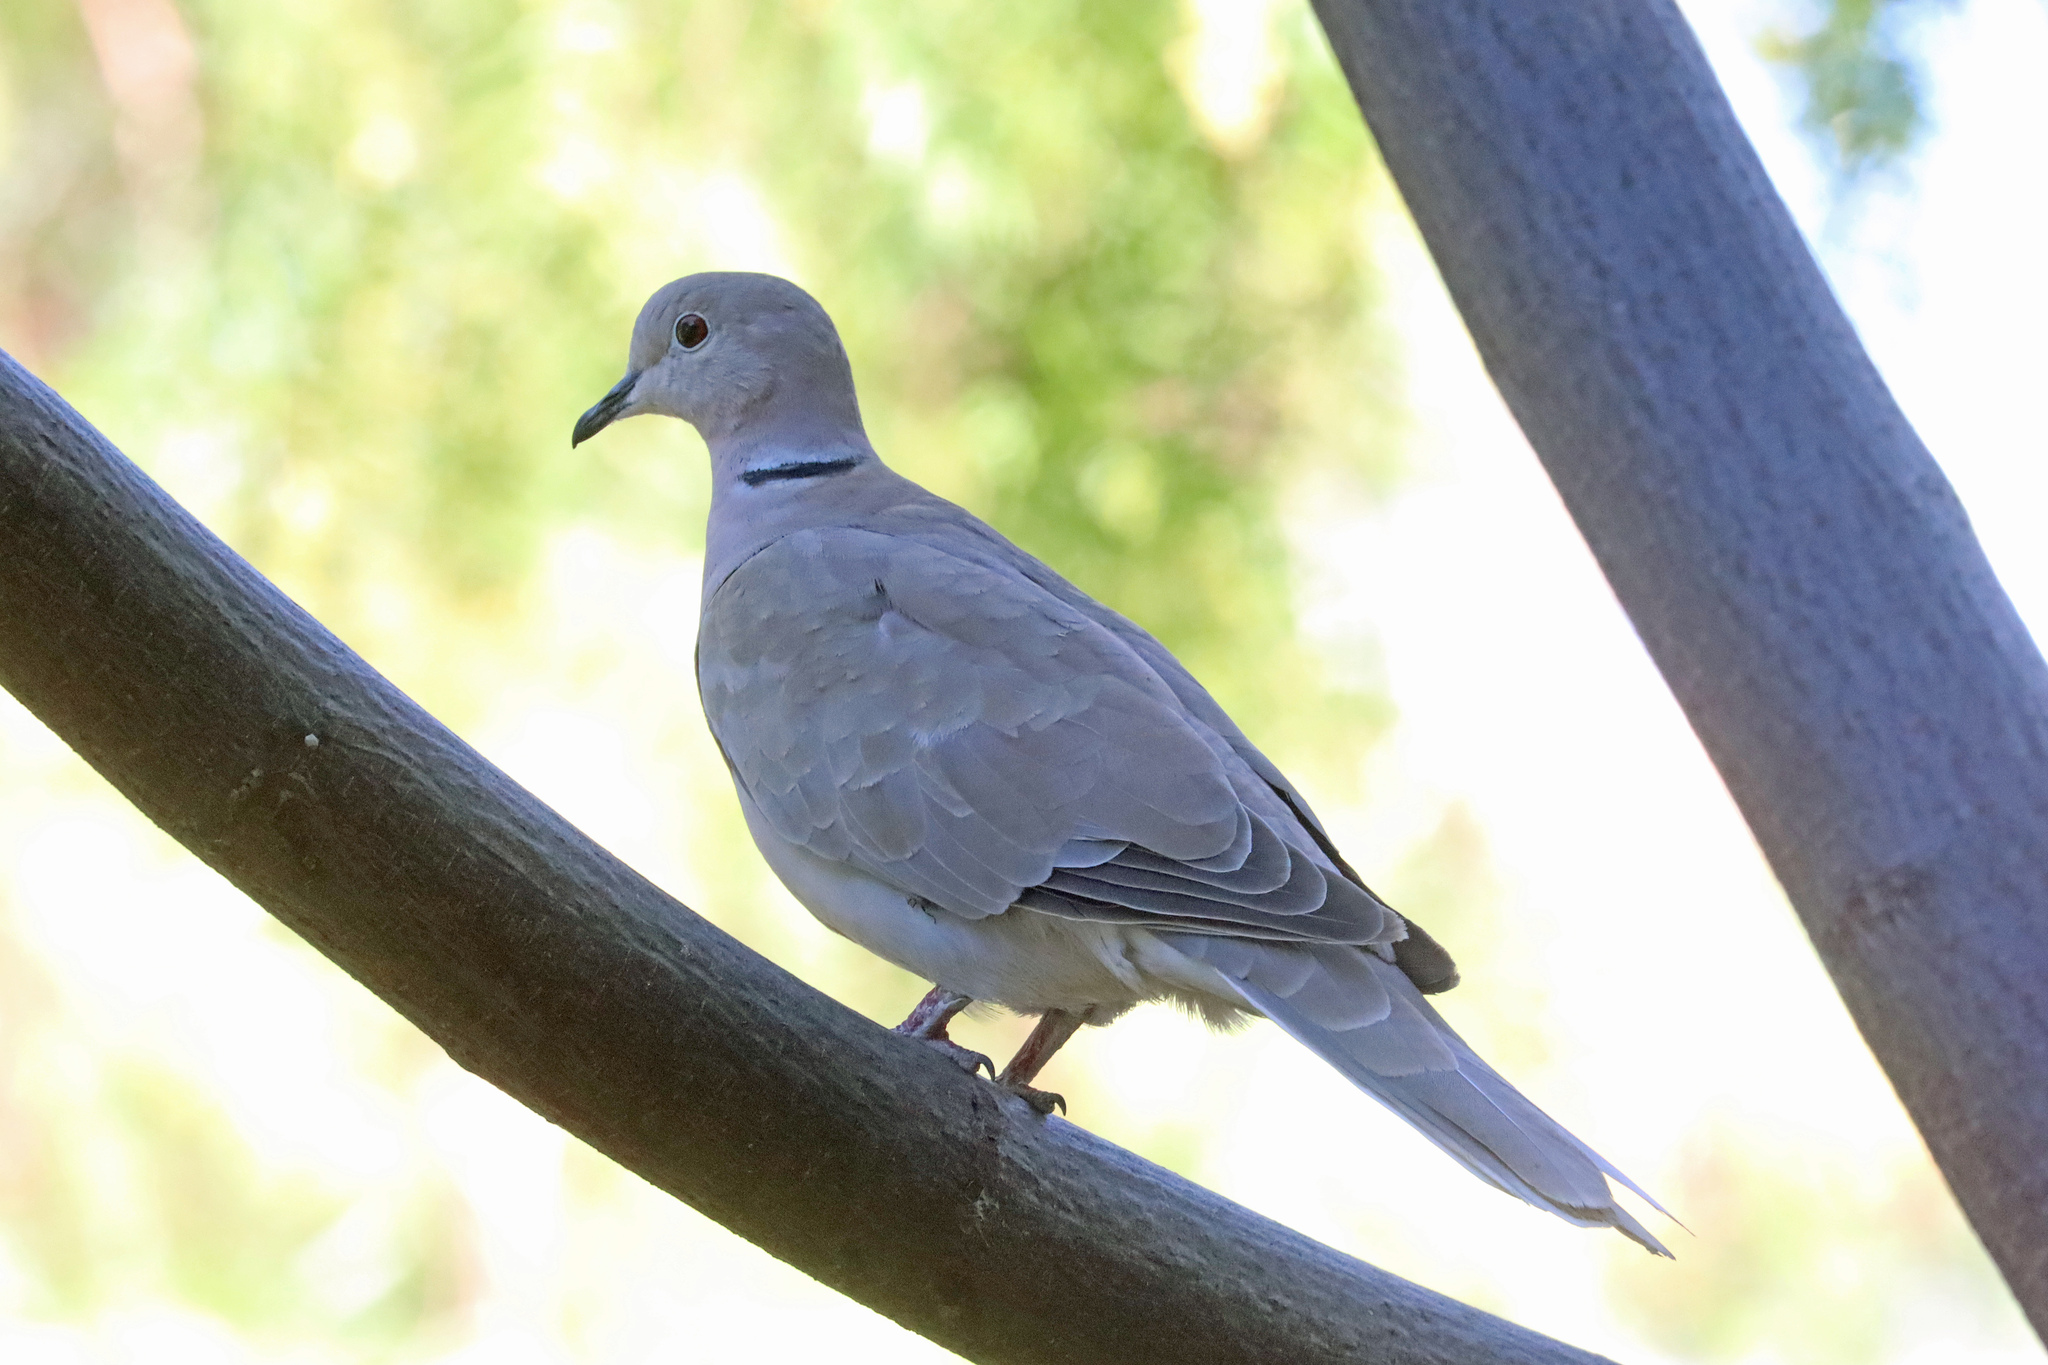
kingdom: Animalia
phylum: Chordata
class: Aves
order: Columbiformes
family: Columbidae
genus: Streptopelia
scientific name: Streptopelia decaocto
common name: Eurasian collared dove
